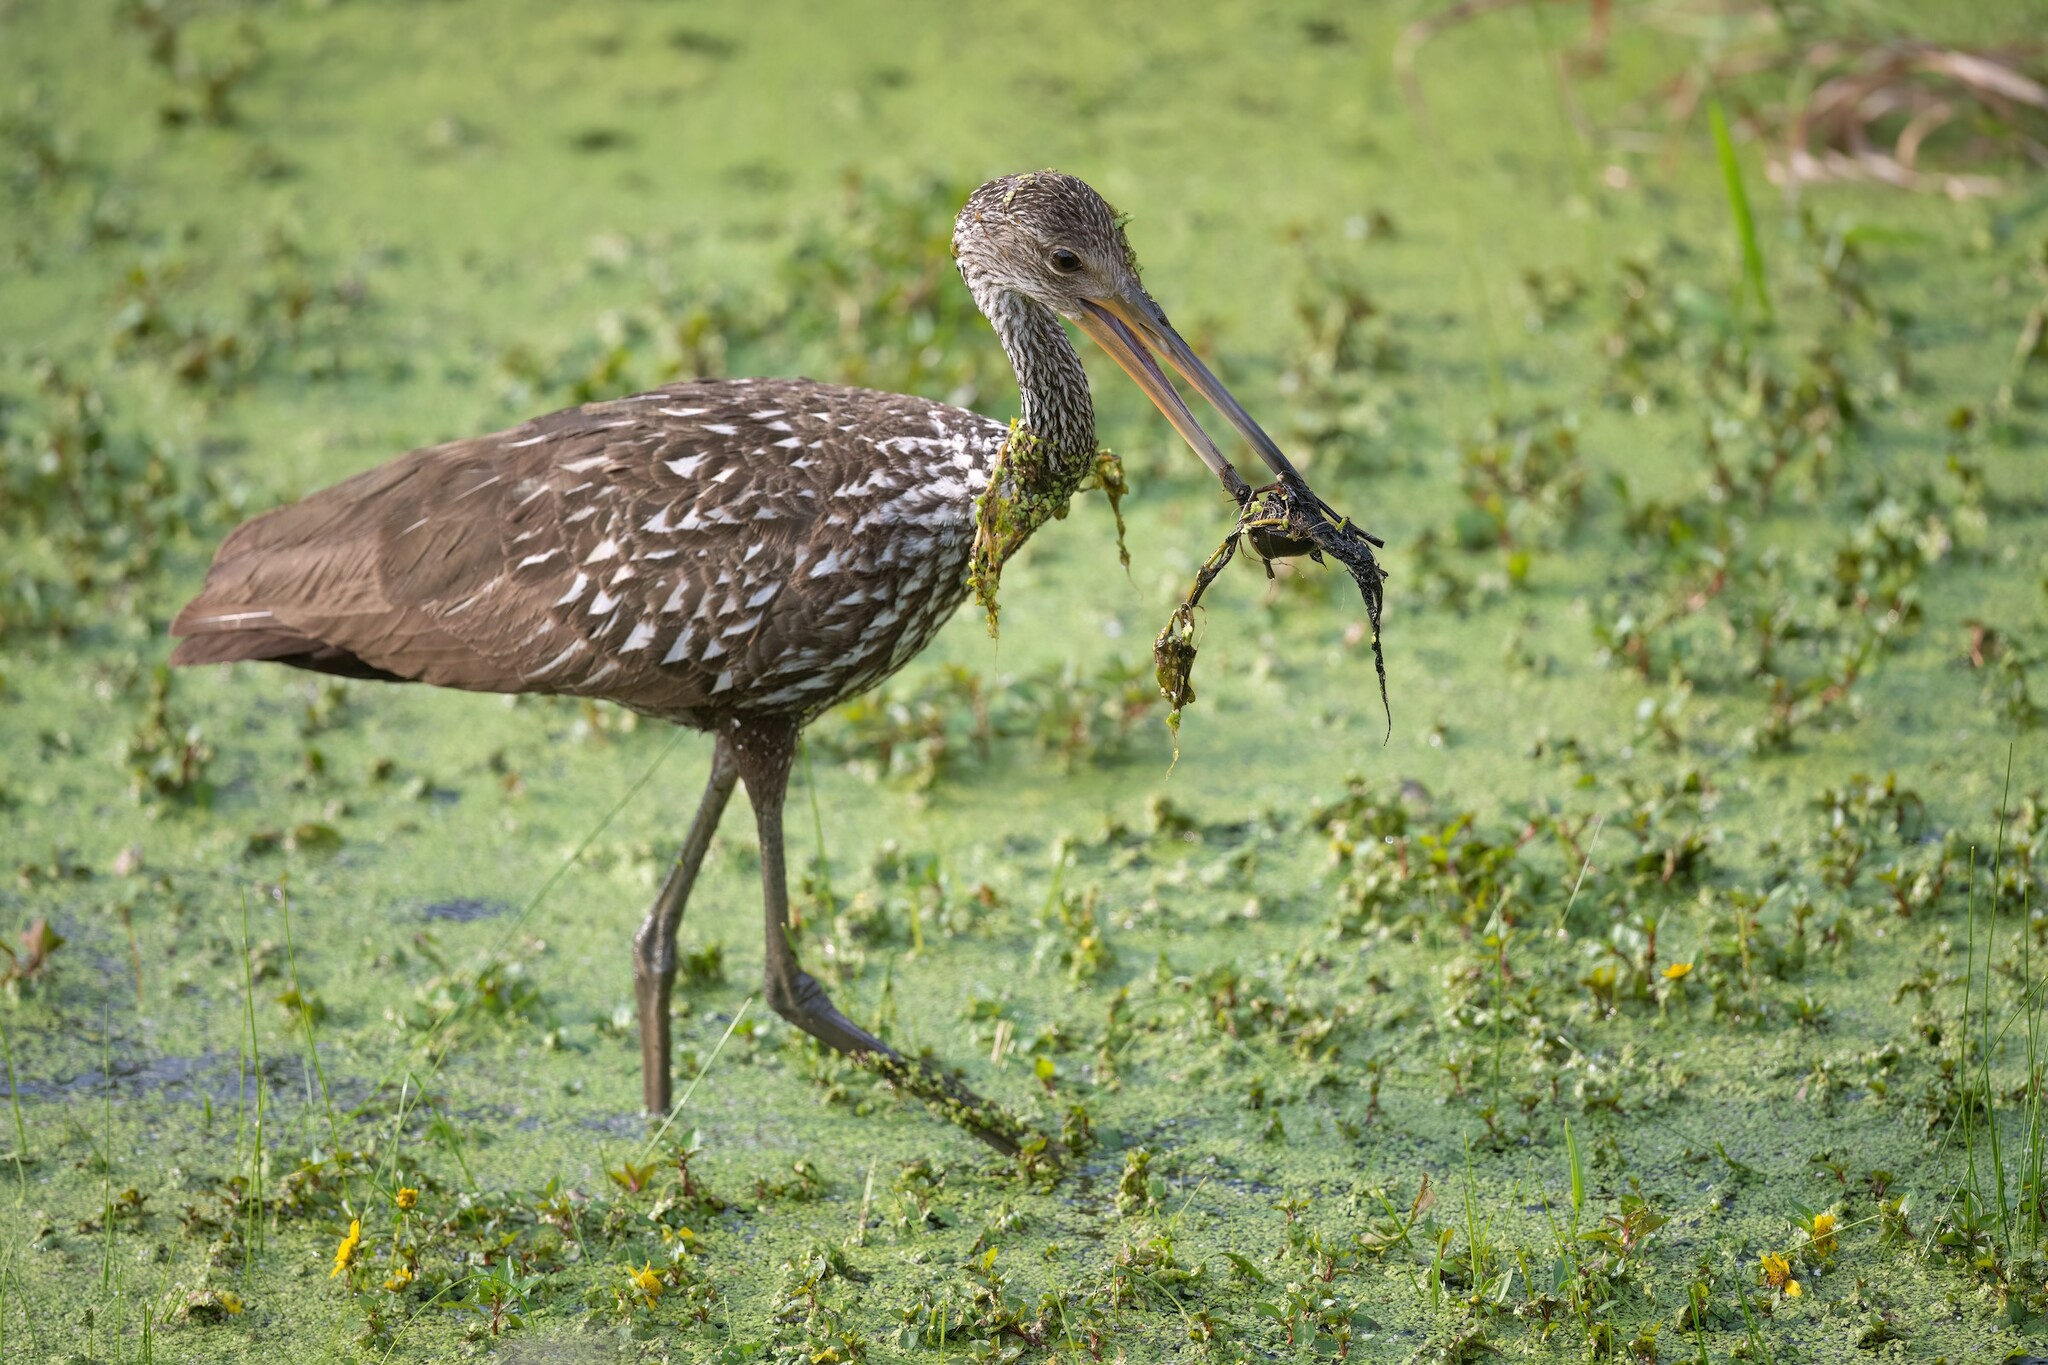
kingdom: Animalia
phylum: Chordata
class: Aves
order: Gruiformes
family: Aramidae
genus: Aramus
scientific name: Aramus guarauna
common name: Limpkin
